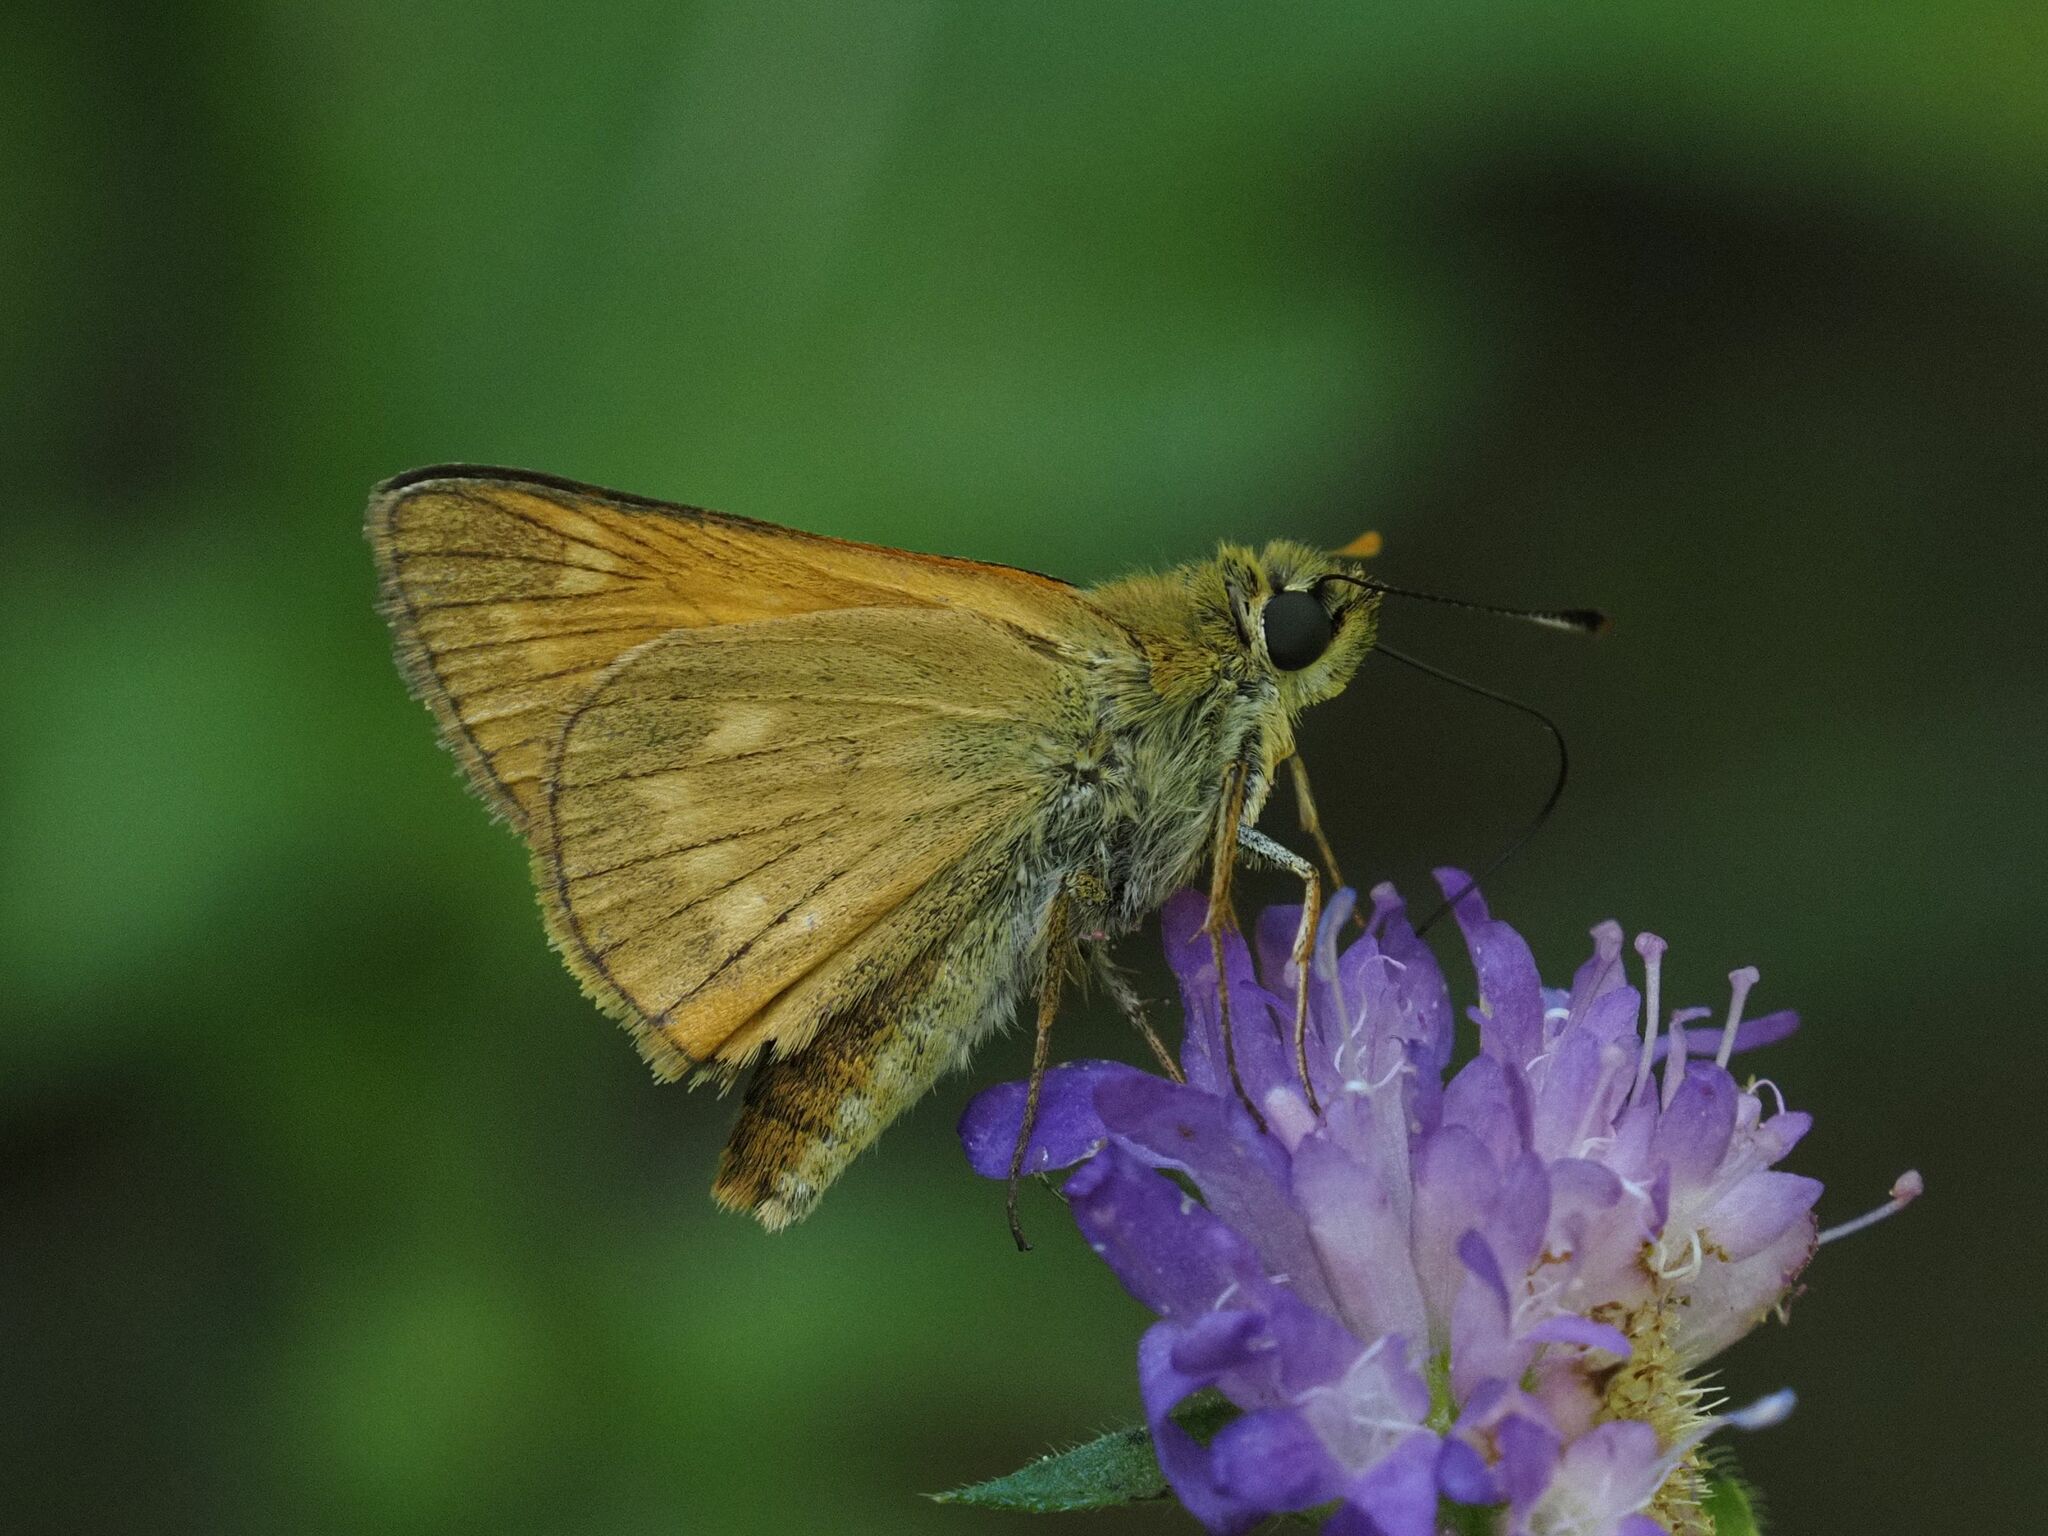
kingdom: Animalia
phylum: Arthropoda
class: Insecta
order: Lepidoptera
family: Hesperiidae
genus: Ochlodes
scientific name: Ochlodes venata
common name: Large skipper
